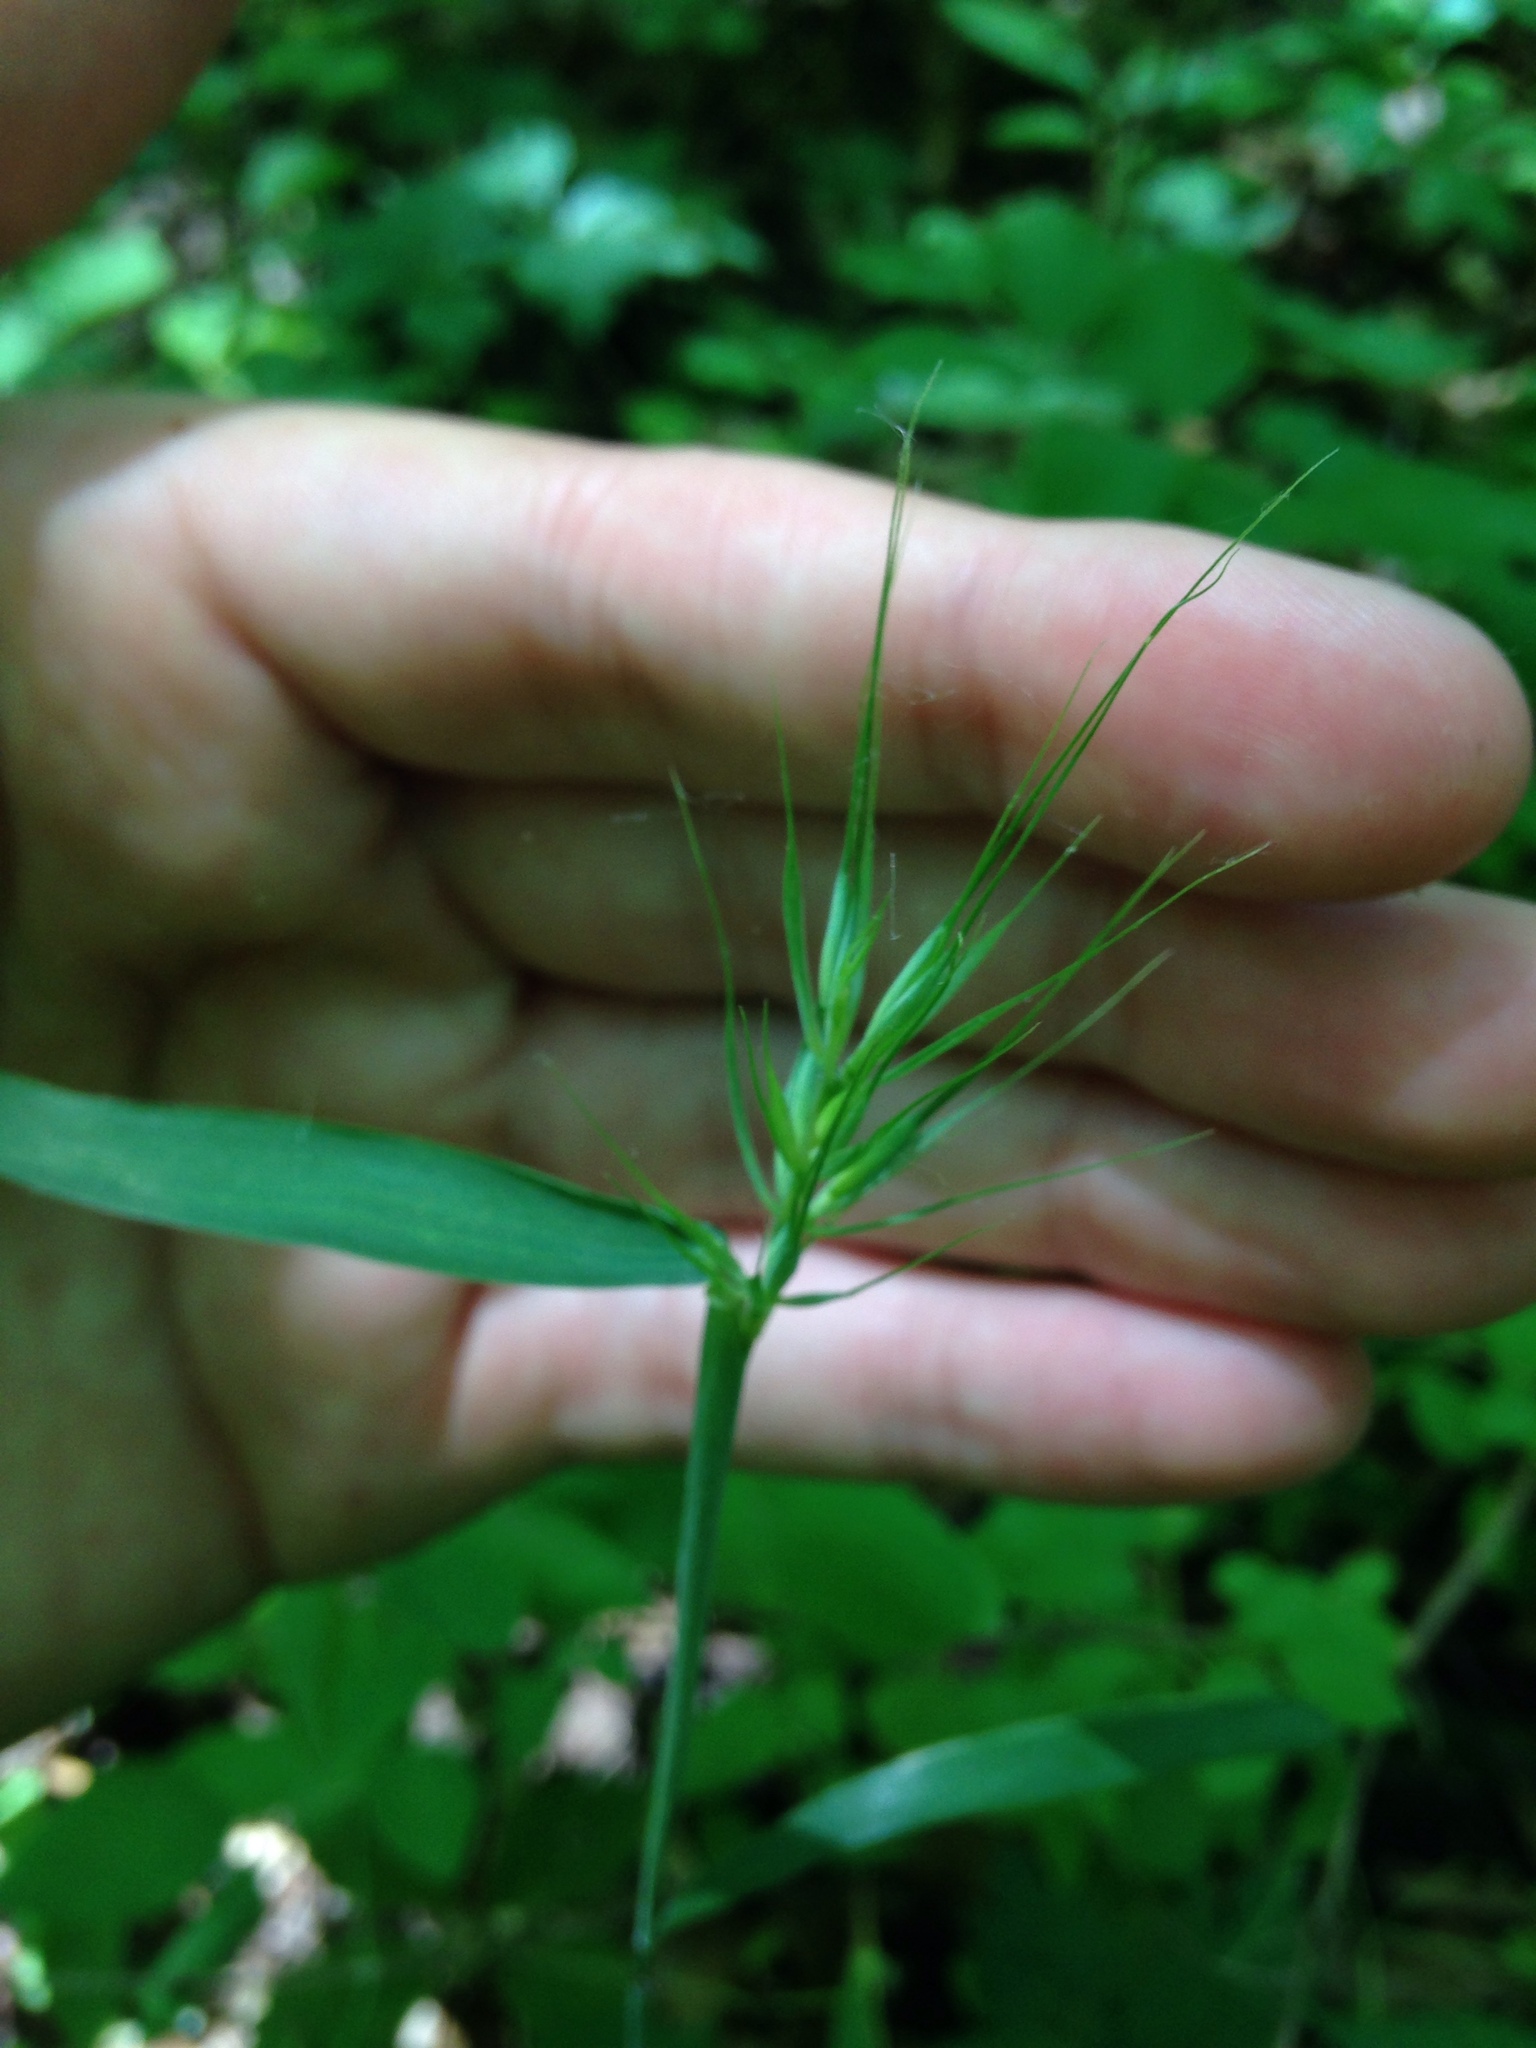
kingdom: Plantae
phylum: Tracheophyta
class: Liliopsida
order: Poales
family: Poaceae
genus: Elymus
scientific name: Elymus villosus
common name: Downy wild rye
